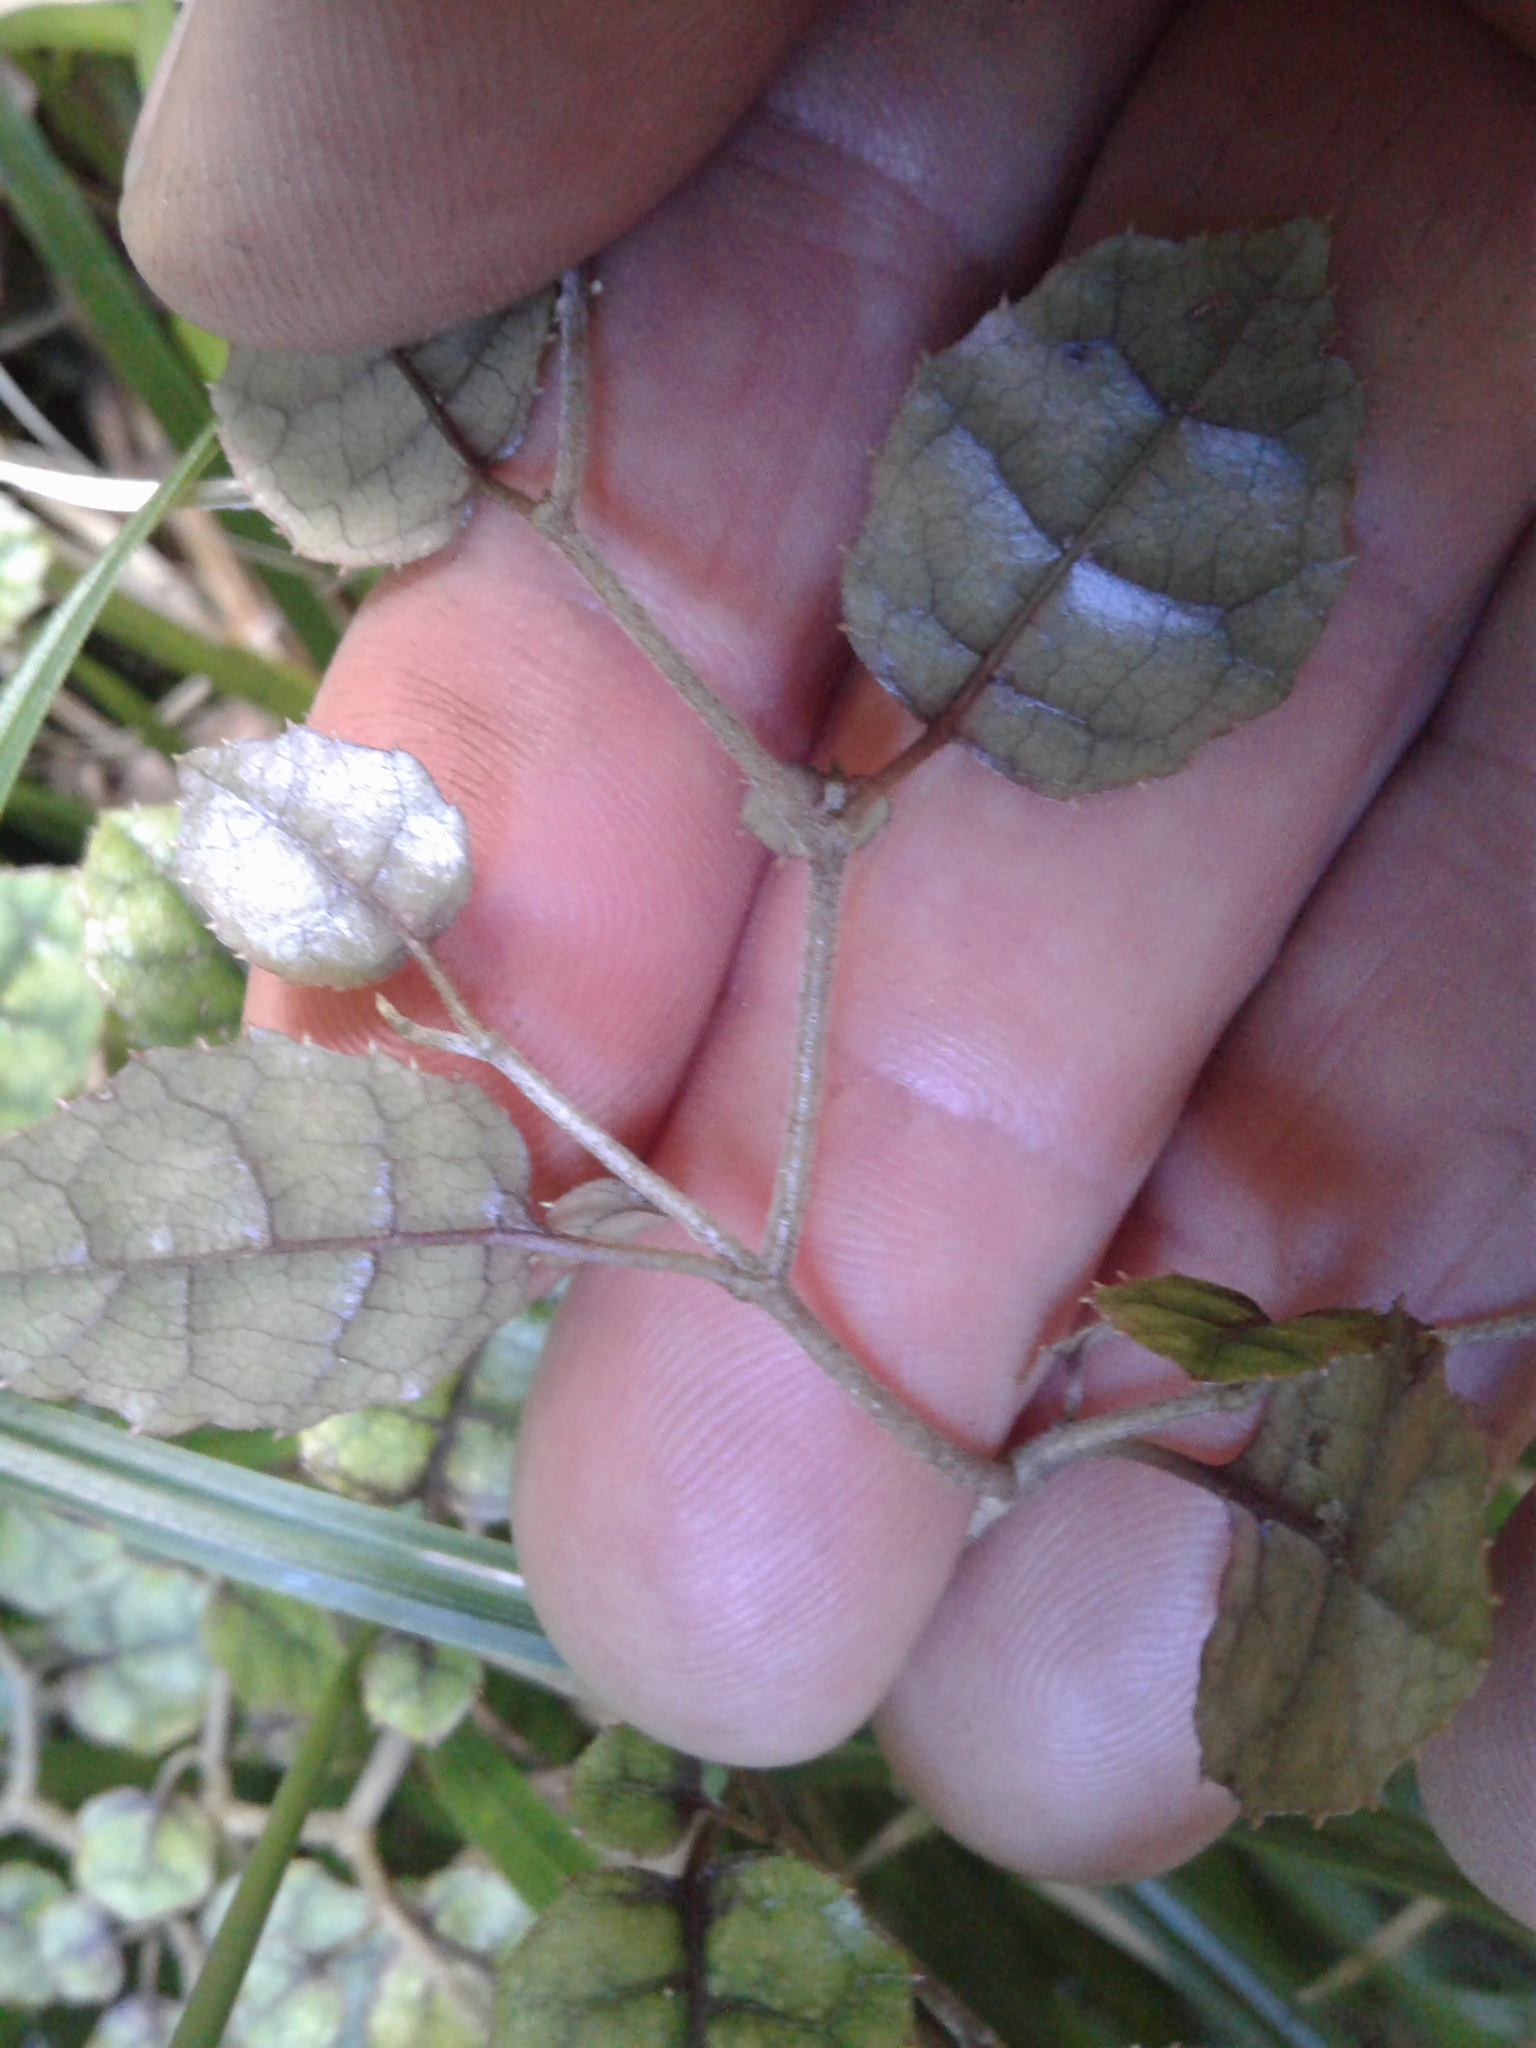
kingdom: Plantae
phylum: Tracheophyta
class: Magnoliopsida
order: Asterales
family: Rousseaceae
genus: Carpodetus
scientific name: Carpodetus serratus
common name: White mapau
